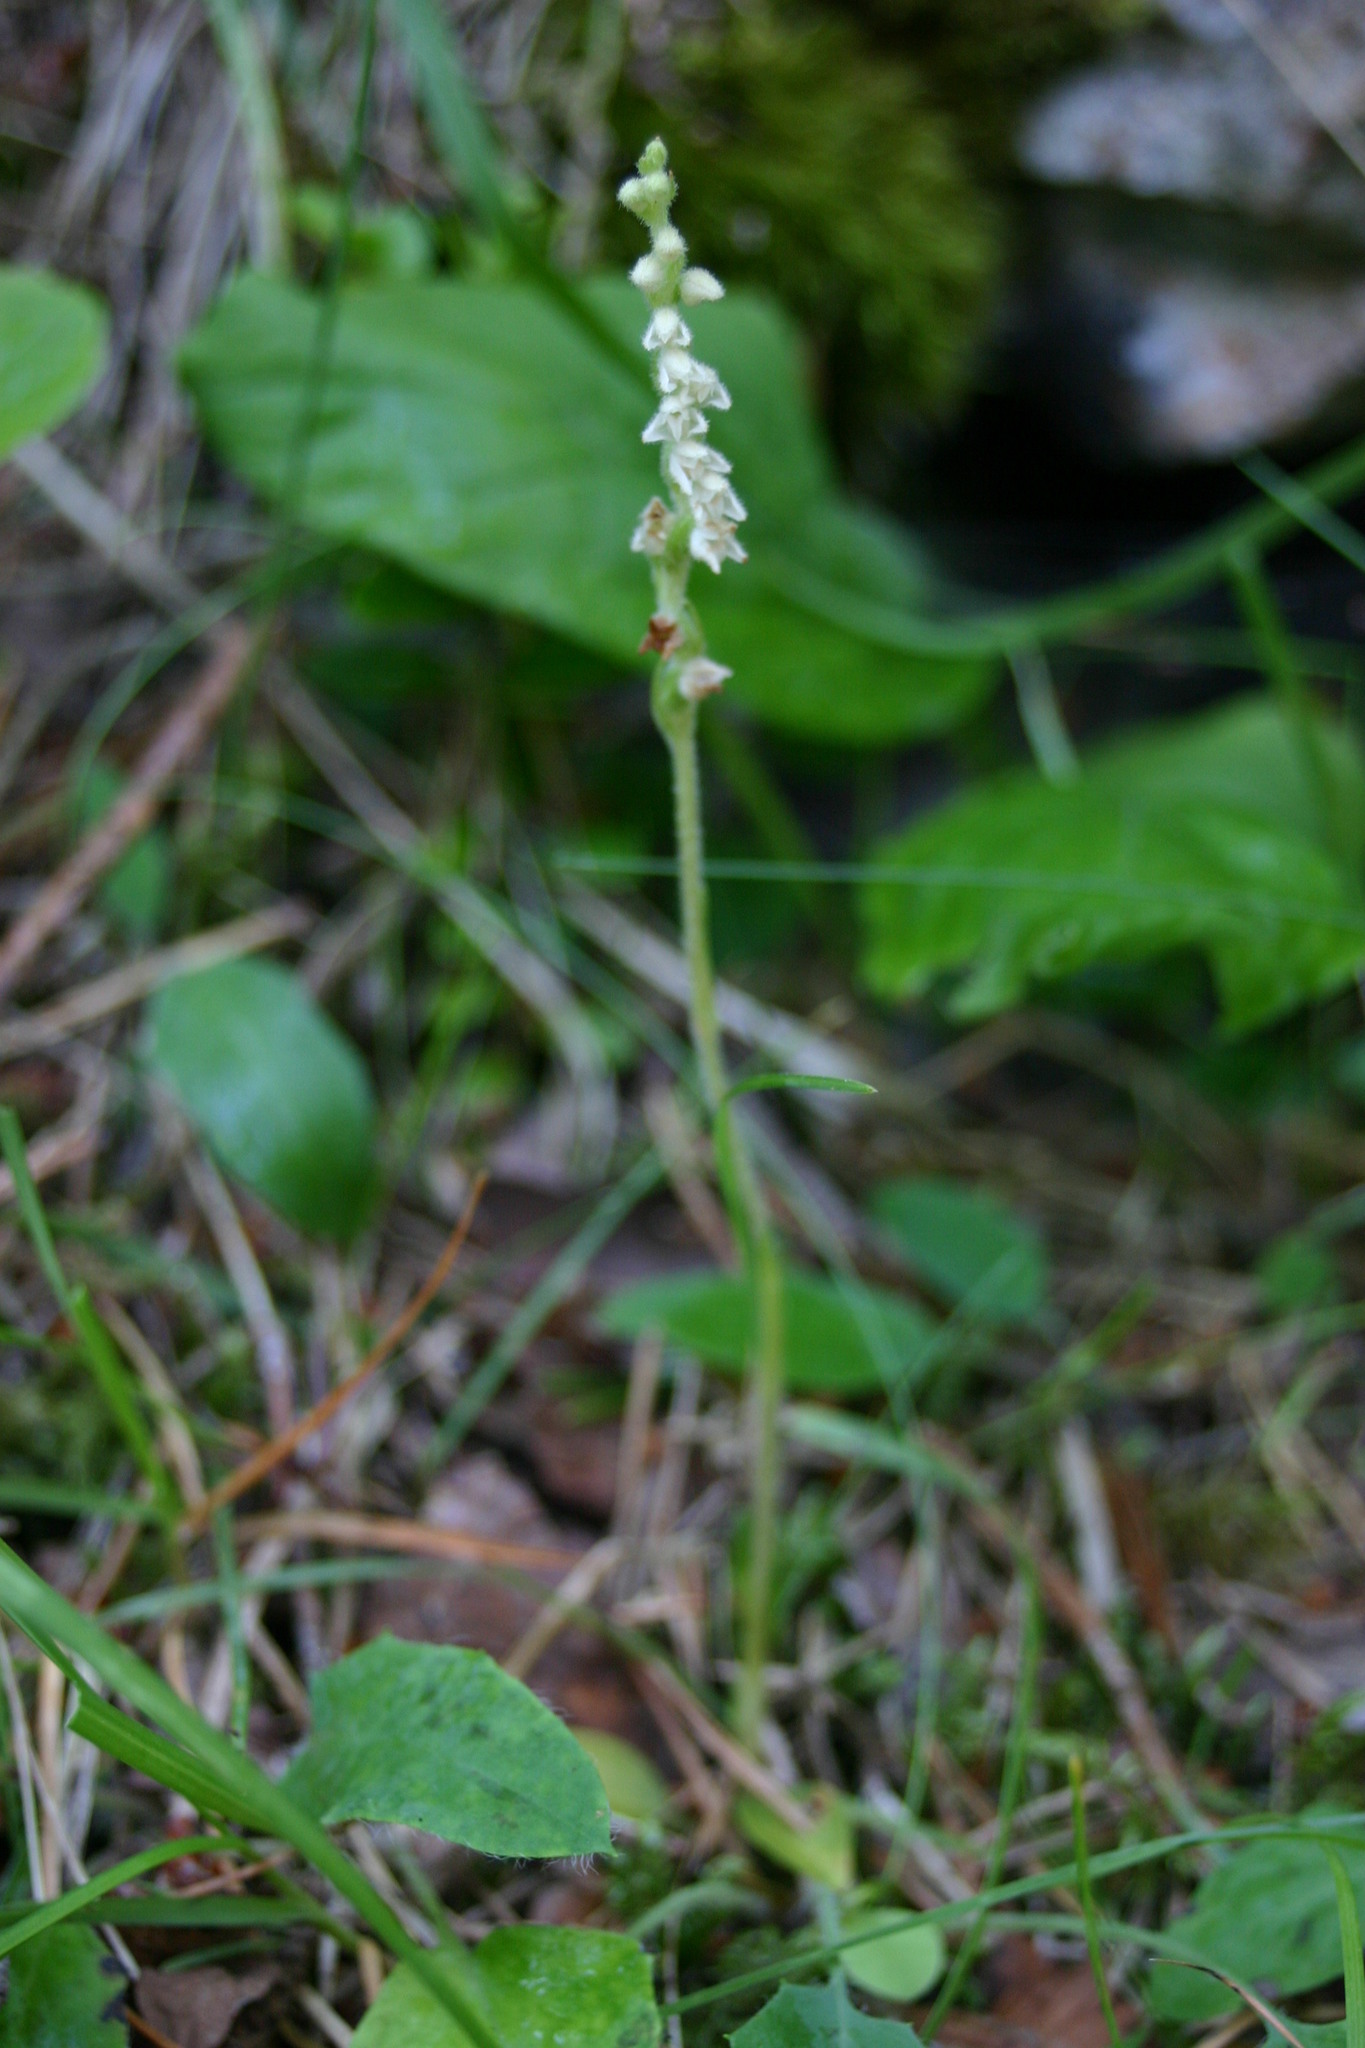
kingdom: Plantae
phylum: Tracheophyta
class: Liliopsida
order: Asparagales
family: Orchidaceae
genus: Goodyera
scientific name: Goodyera repens
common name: Creeping lady's-tresses
